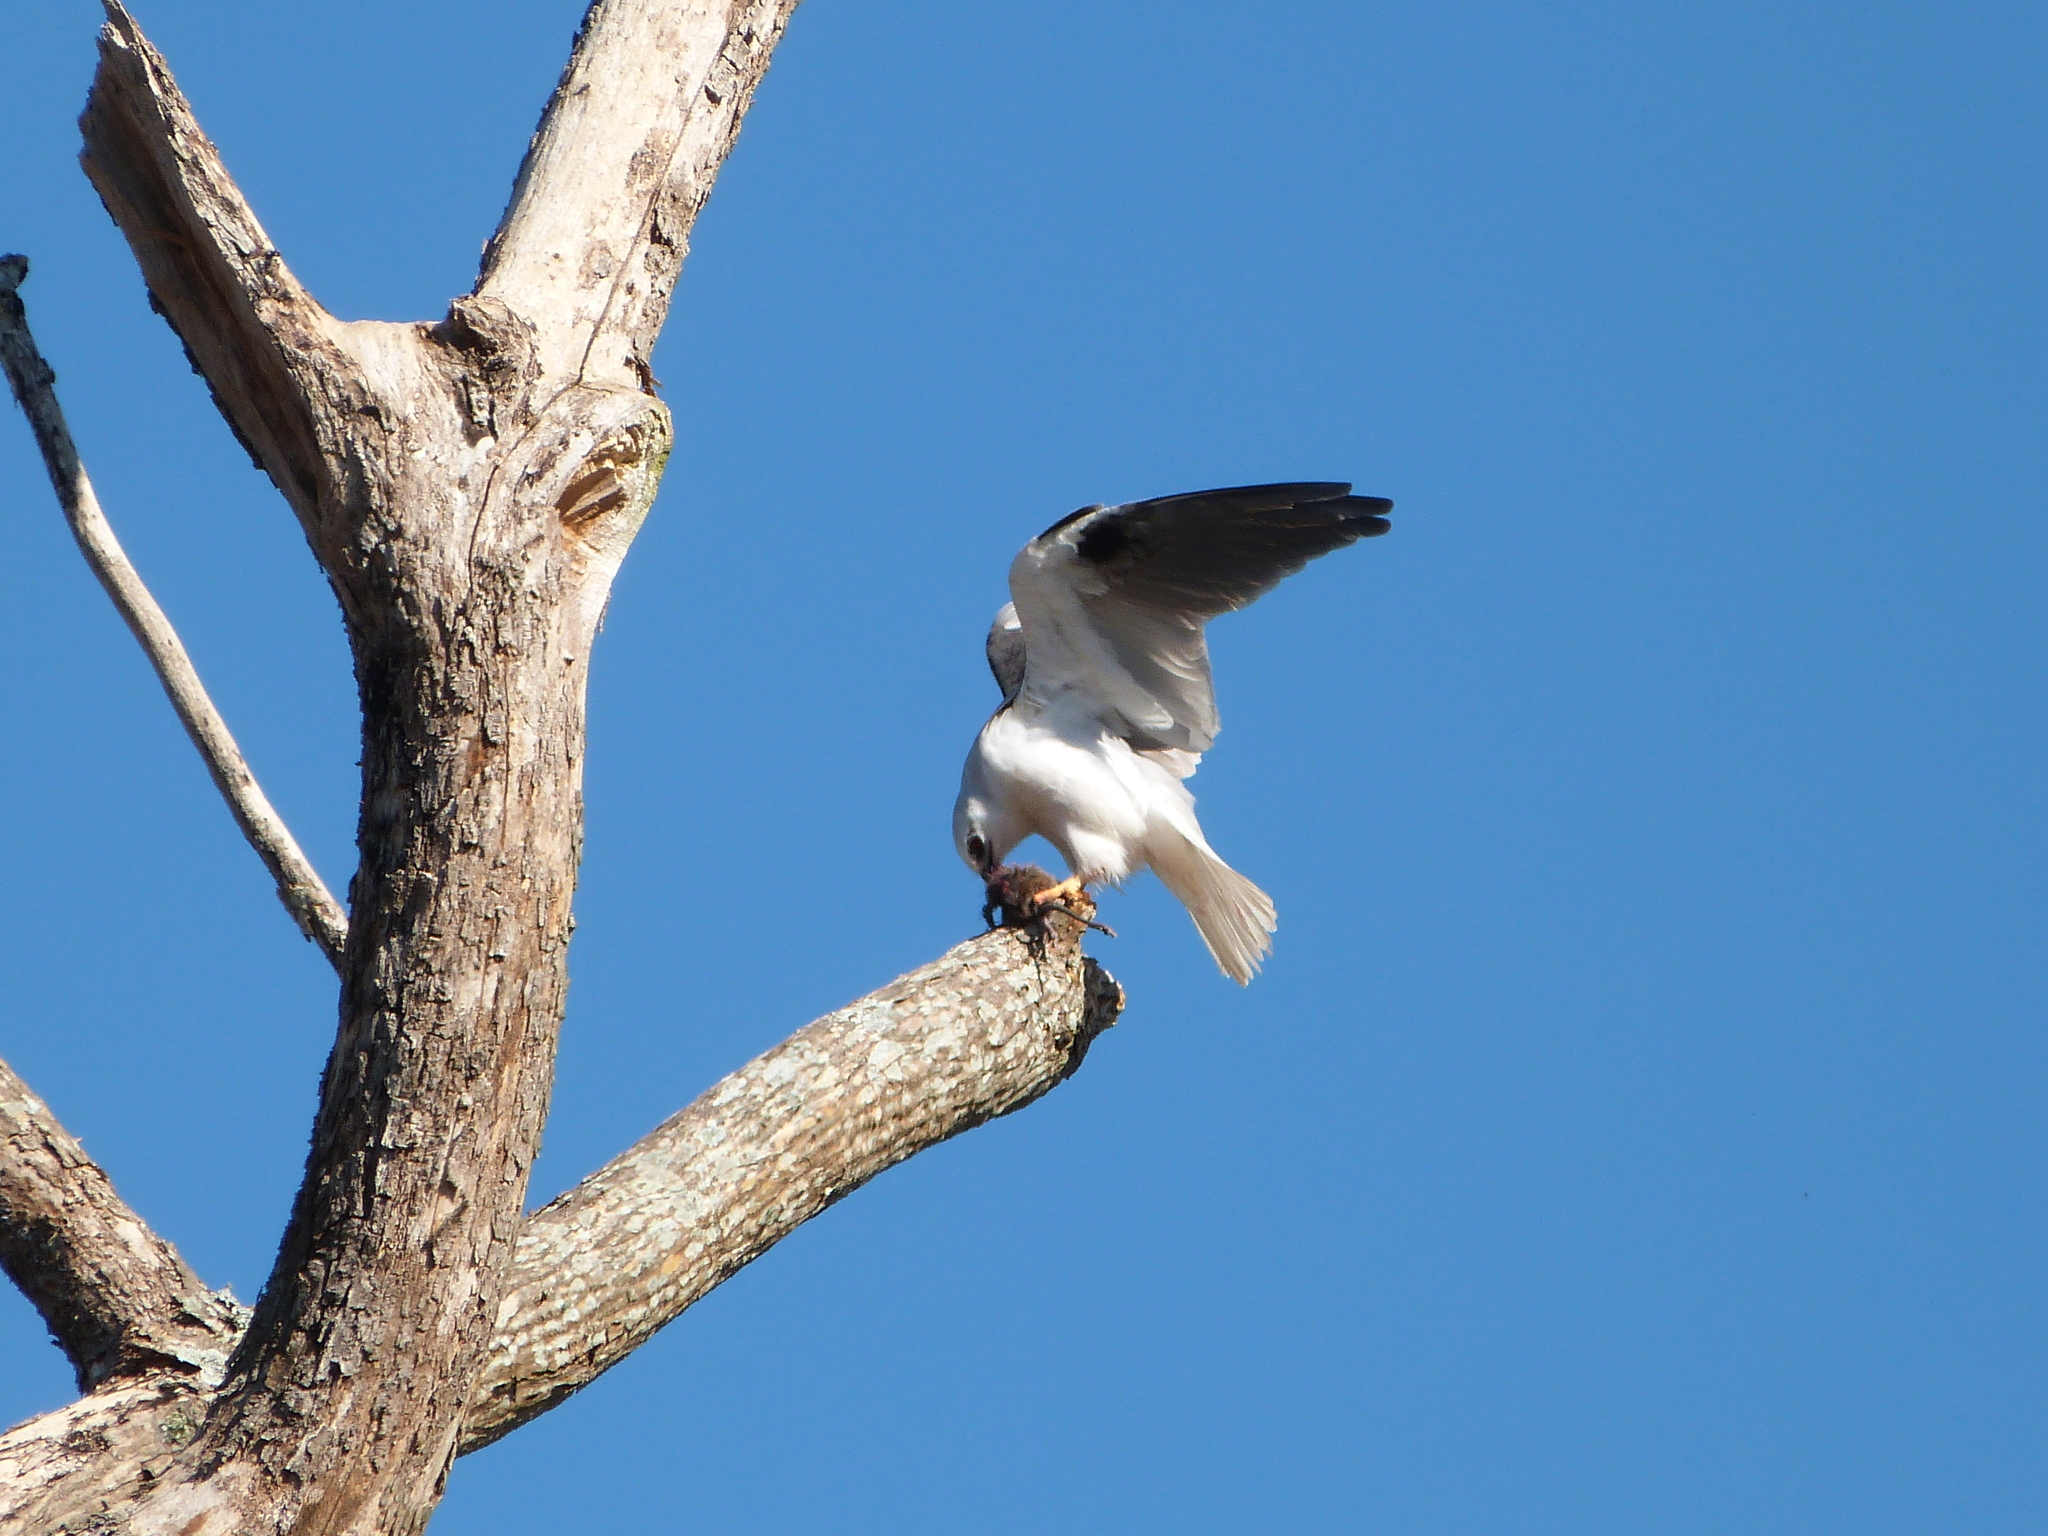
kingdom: Animalia
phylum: Chordata
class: Aves
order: Accipitriformes
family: Accipitridae
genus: Elanus
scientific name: Elanus axillaris
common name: Black-shouldered kite
